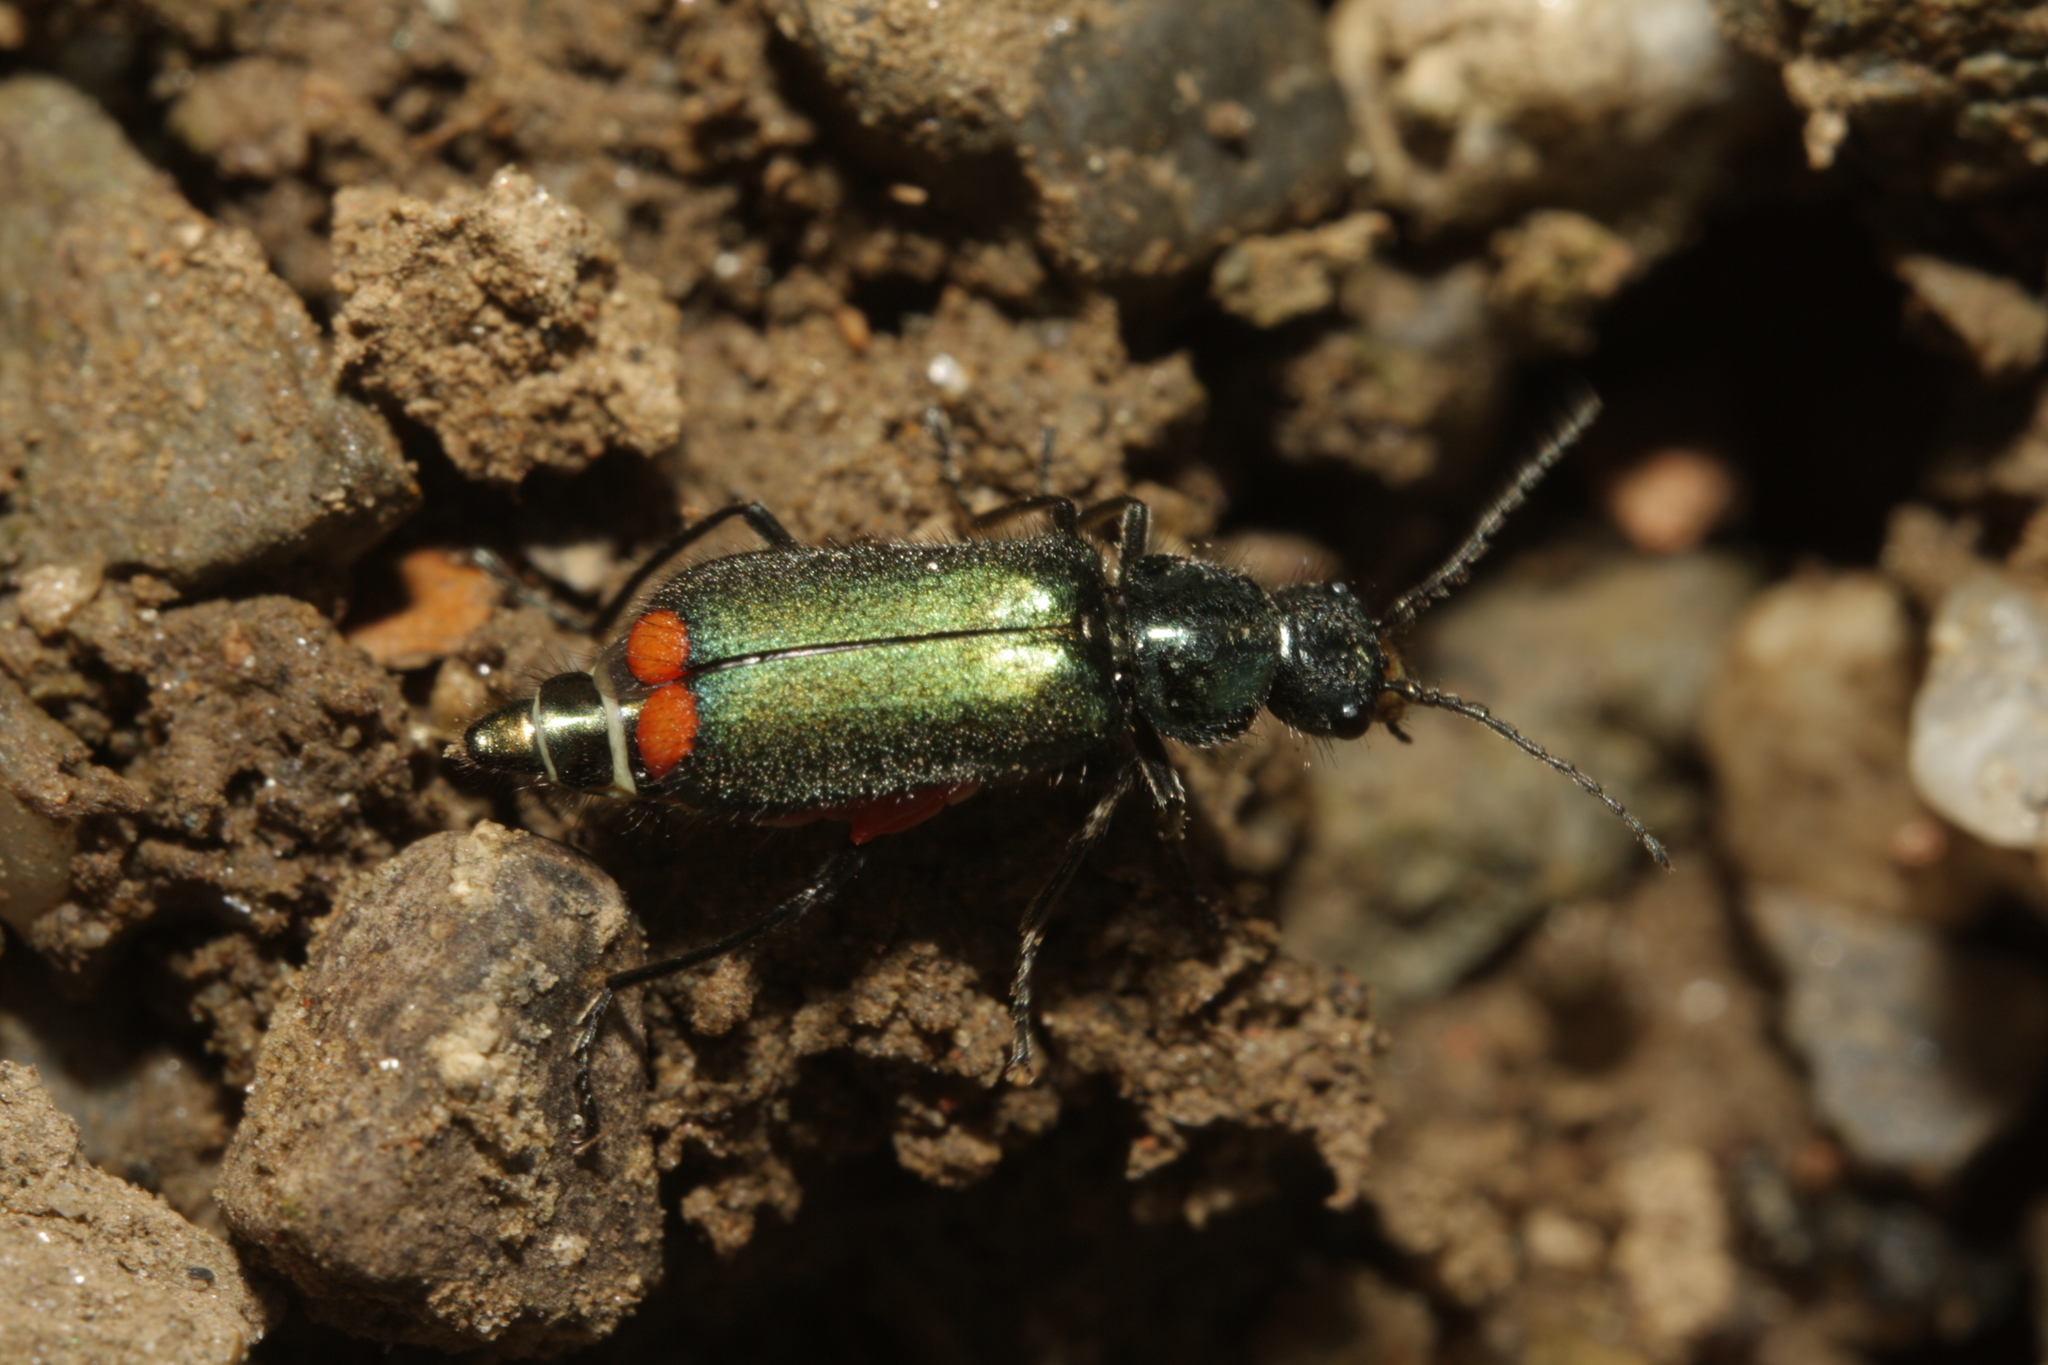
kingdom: Animalia
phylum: Arthropoda
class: Insecta
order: Coleoptera
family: Melyridae
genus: Malachius
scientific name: Malachius bipustulatus
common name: Malachite beetle
